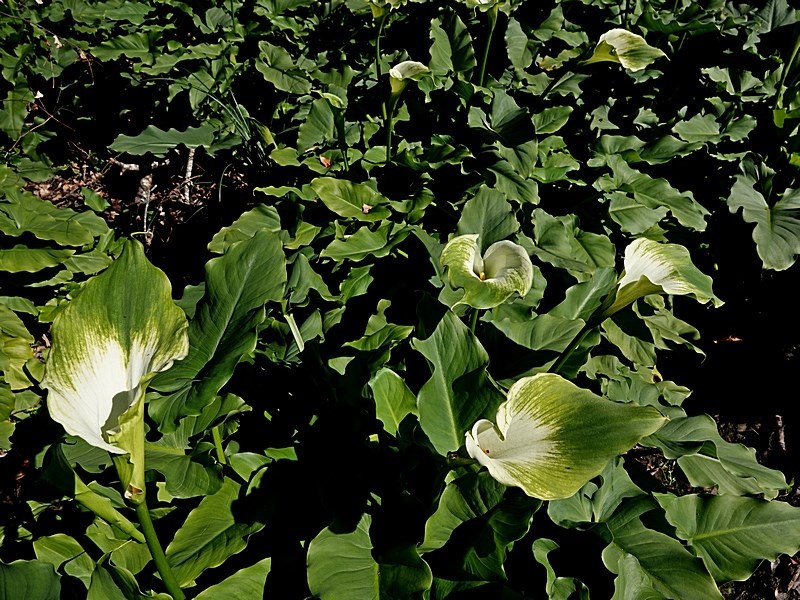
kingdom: Plantae
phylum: Tracheophyta
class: Liliopsida
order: Alismatales
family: Araceae
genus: Zantedeschia
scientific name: Zantedeschia aethiopica
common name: Altar-lily
